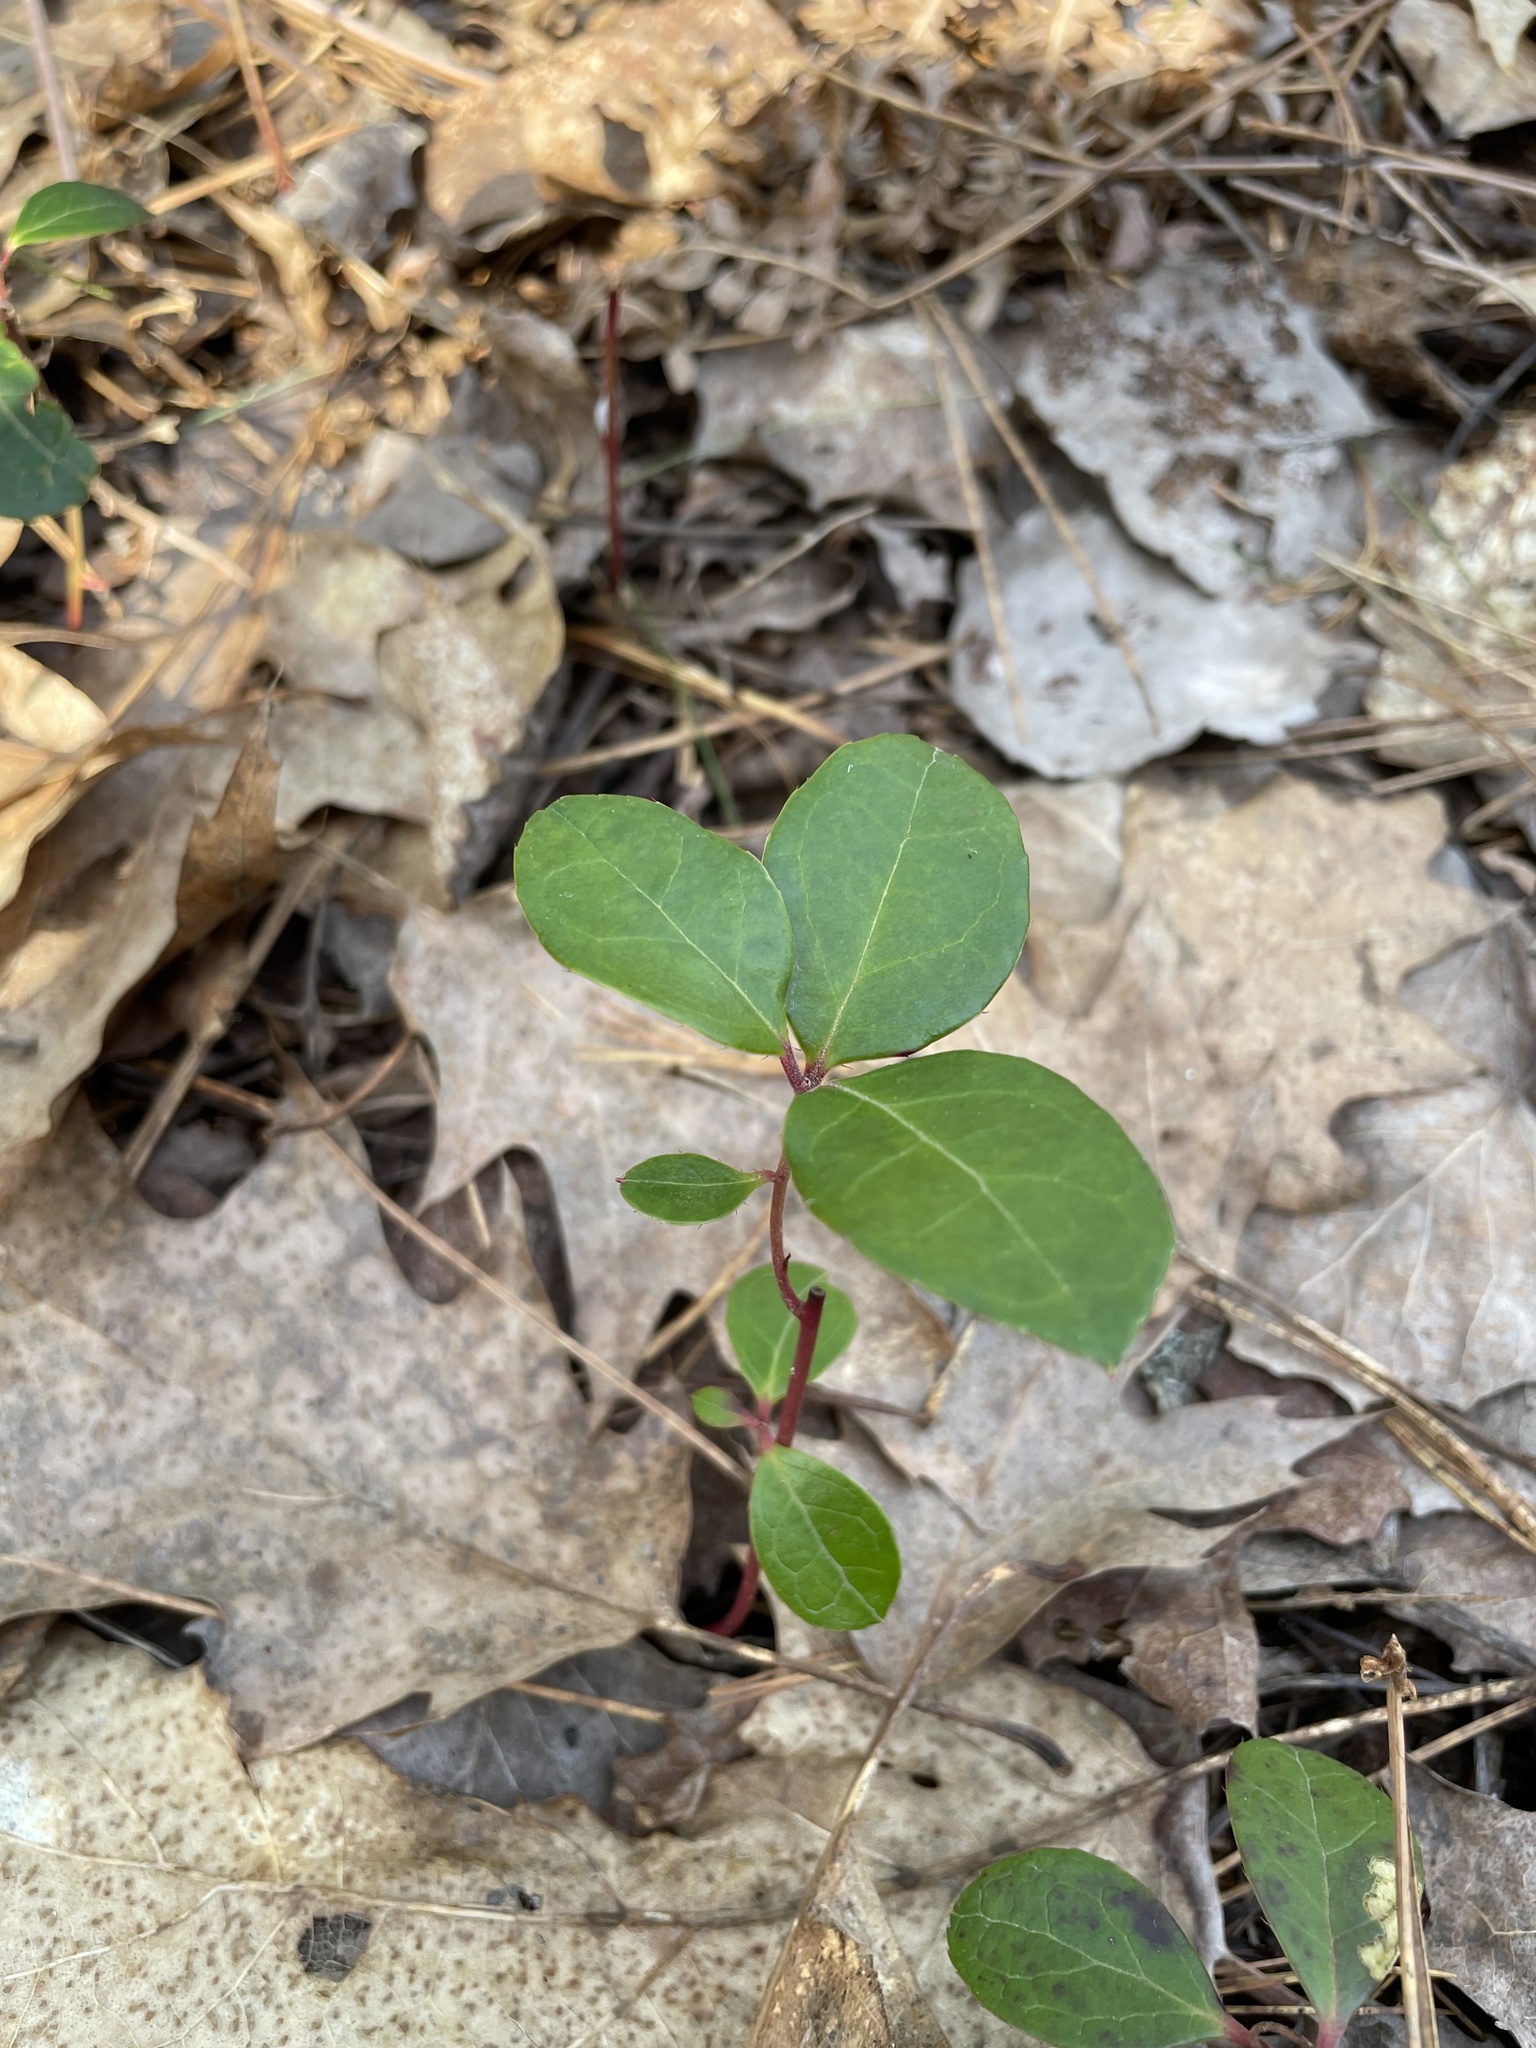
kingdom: Plantae
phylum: Tracheophyta
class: Magnoliopsida
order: Ericales
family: Ericaceae
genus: Gaultheria
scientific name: Gaultheria procumbens
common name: Checkerberry
